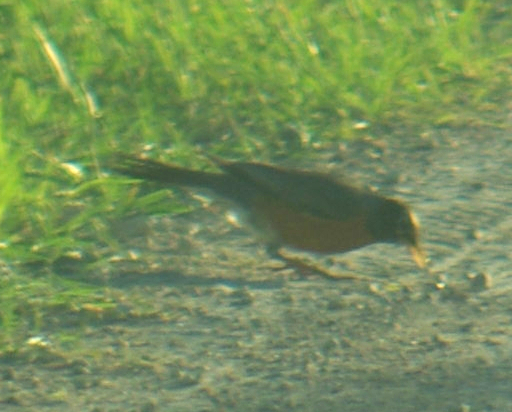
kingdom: Animalia
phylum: Chordata
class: Aves
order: Passeriformes
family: Turdidae
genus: Turdus
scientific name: Turdus migratorius
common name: American robin
